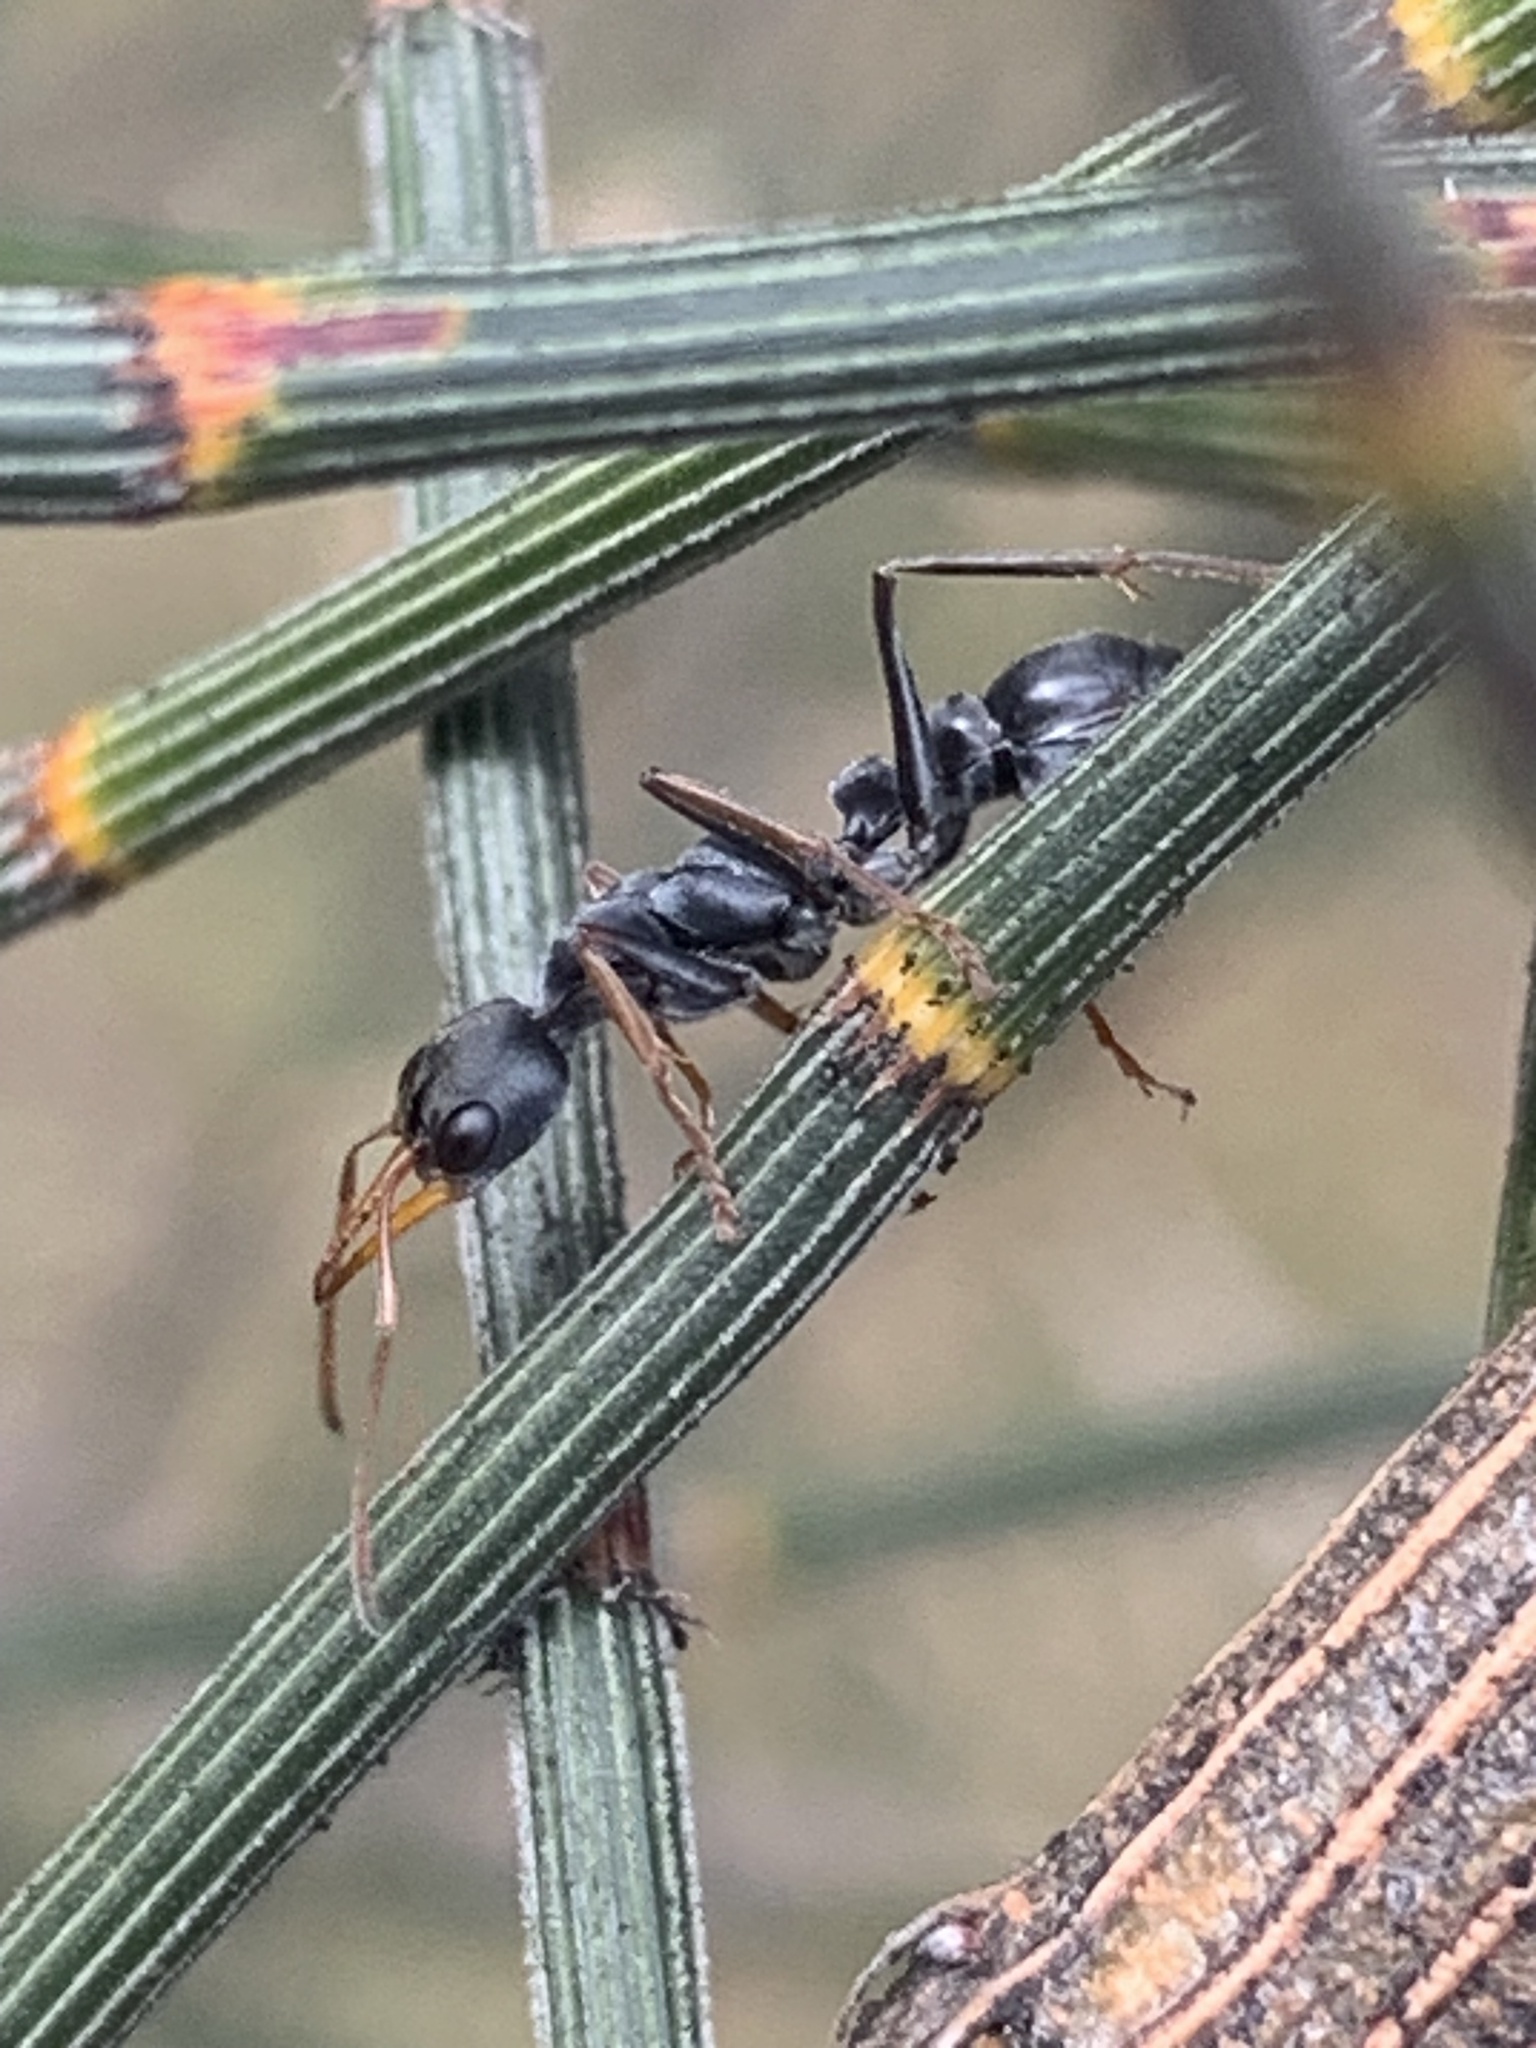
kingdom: Animalia
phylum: Arthropoda
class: Insecta
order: Hymenoptera
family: Formicidae
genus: Myrmecia
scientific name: Myrmecia pilosula
